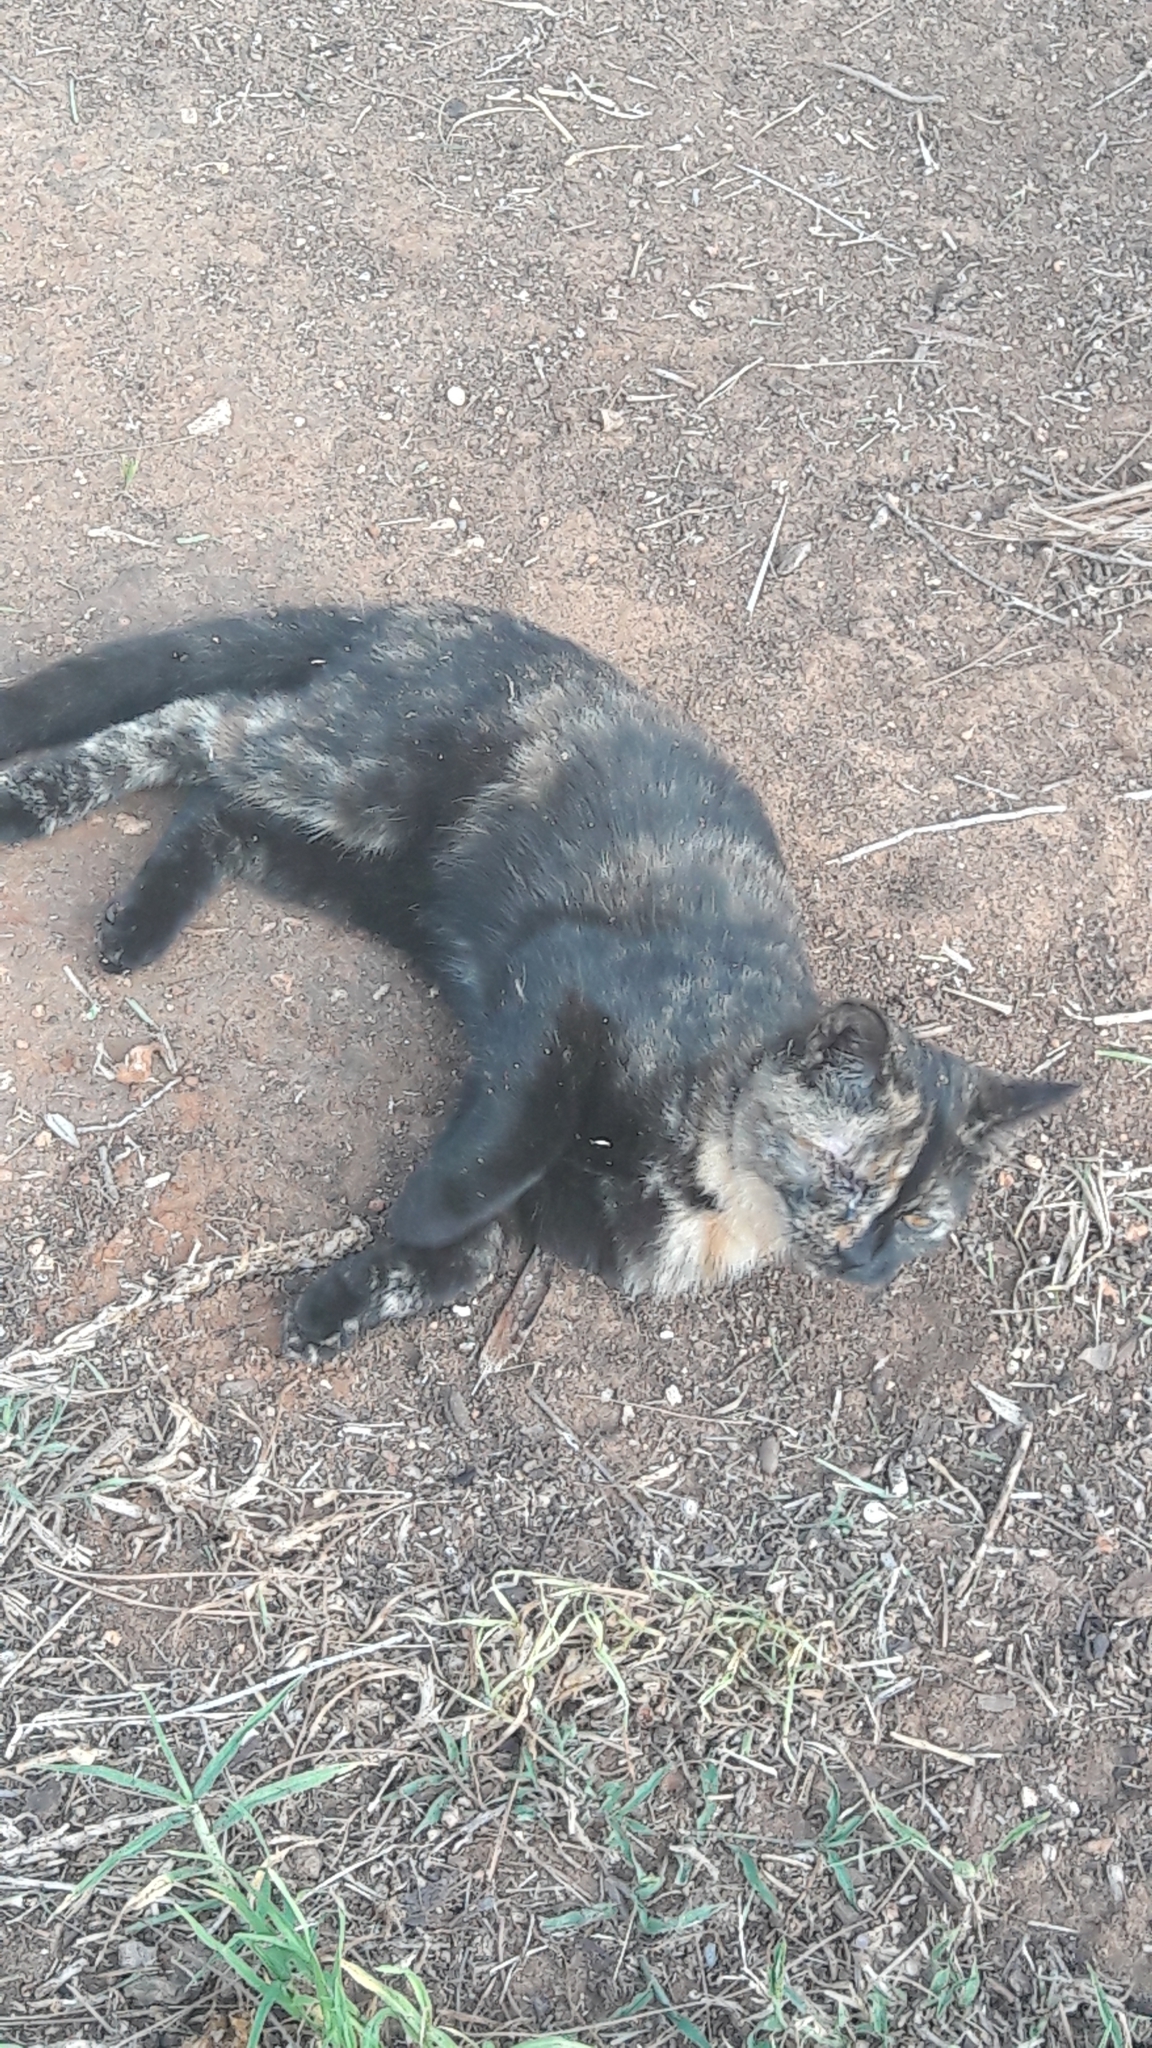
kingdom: Animalia
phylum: Chordata
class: Mammalia
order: Carnivora
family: Felidae
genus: Felis
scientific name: Felis catus
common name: Domestic cat
